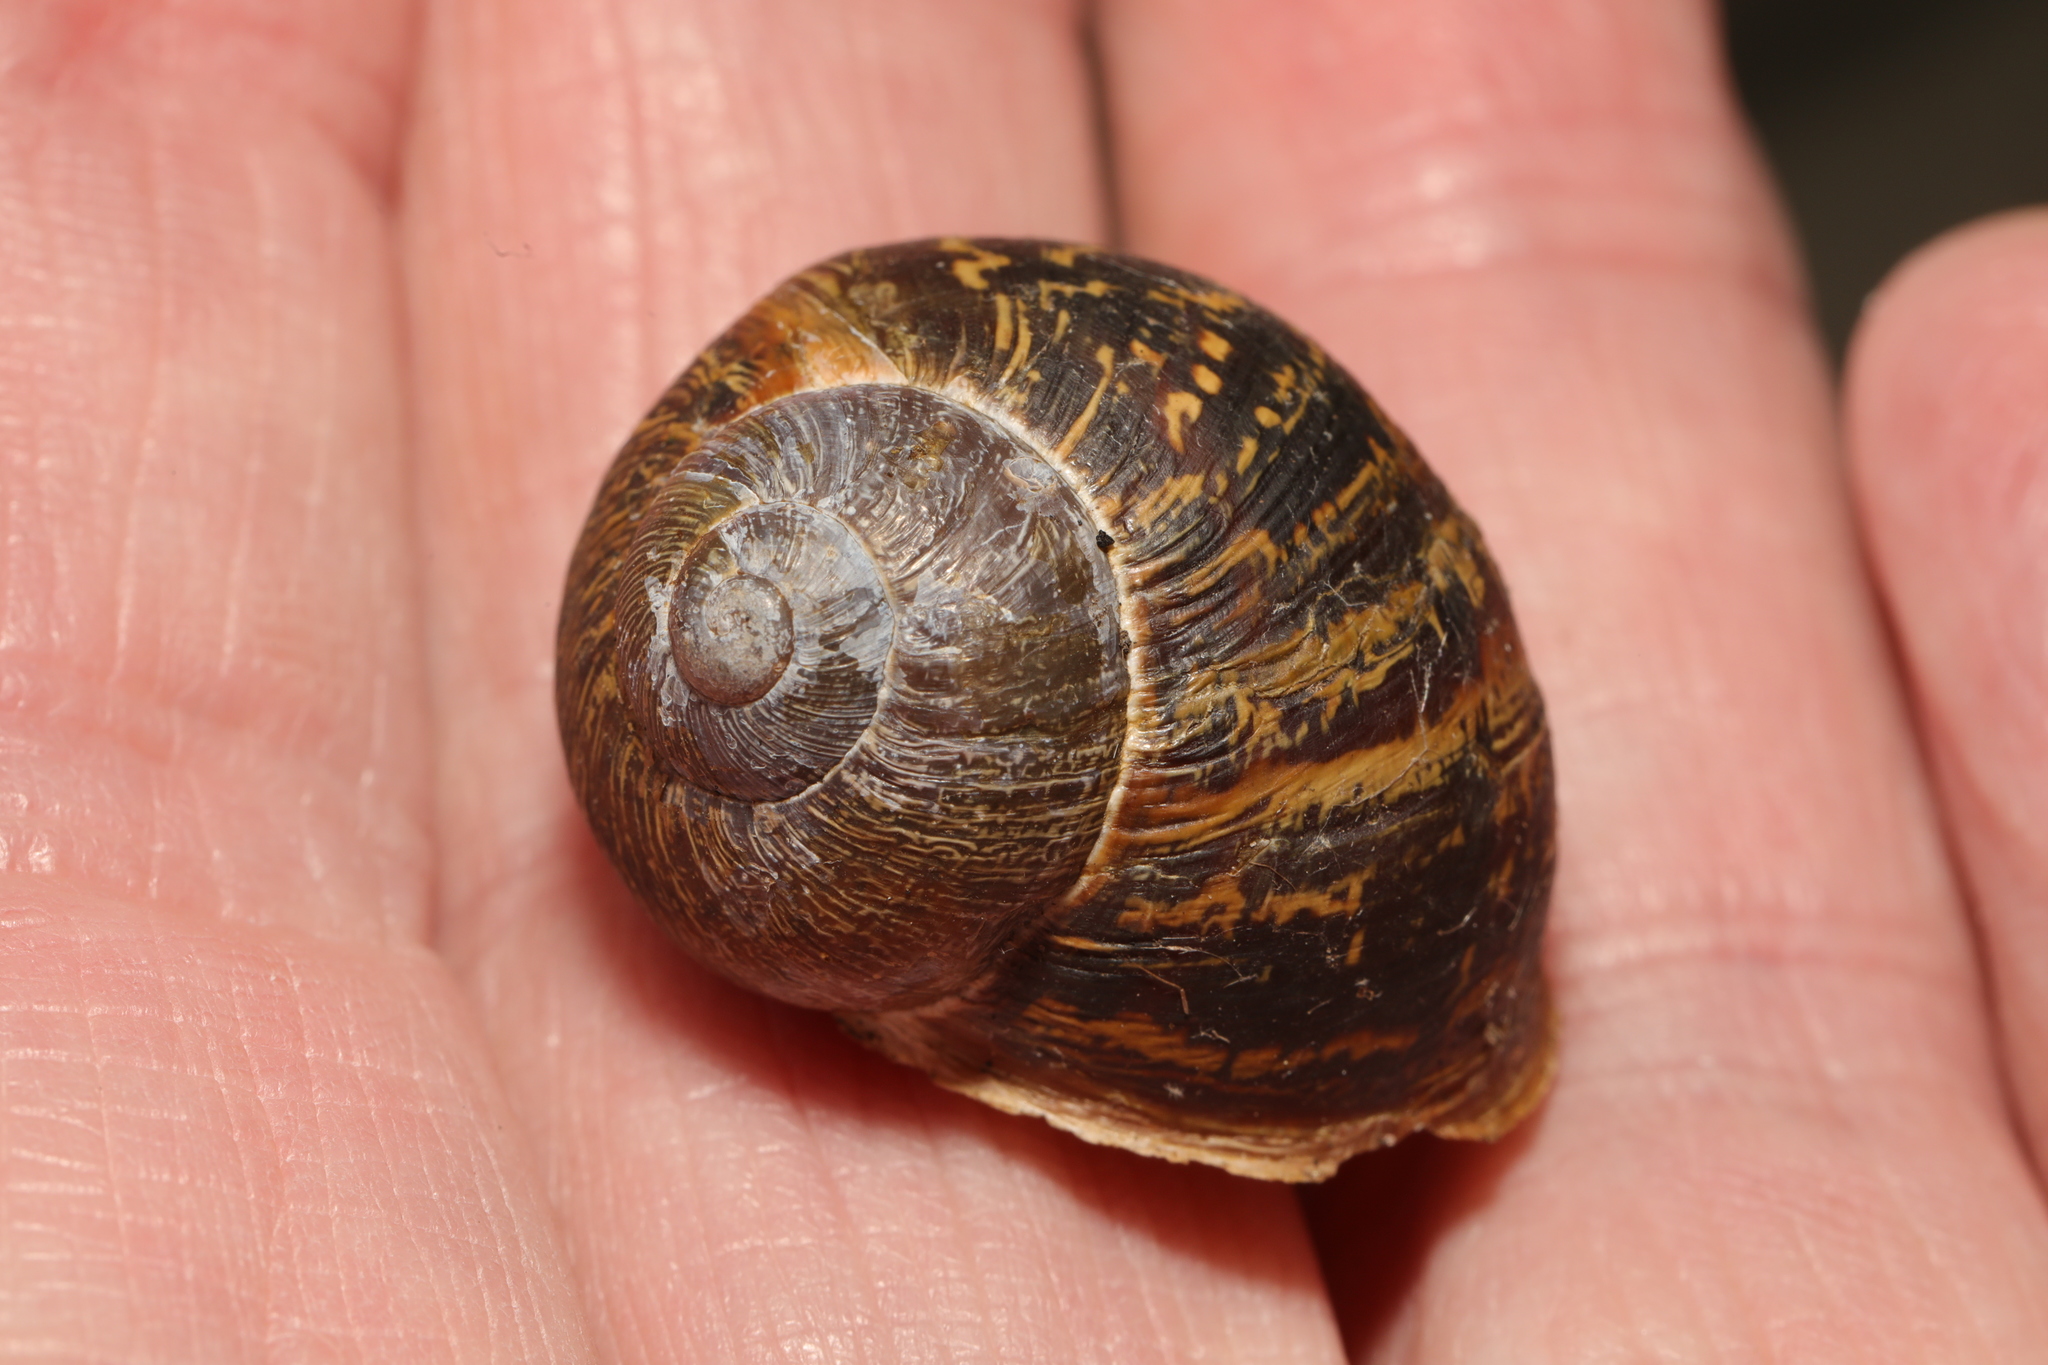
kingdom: Animalia
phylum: Mollusca
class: Gastropoda
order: Stylommatophora
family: Helicidae
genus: Cornu
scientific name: Cornu aspersum
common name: Brown garden snail
